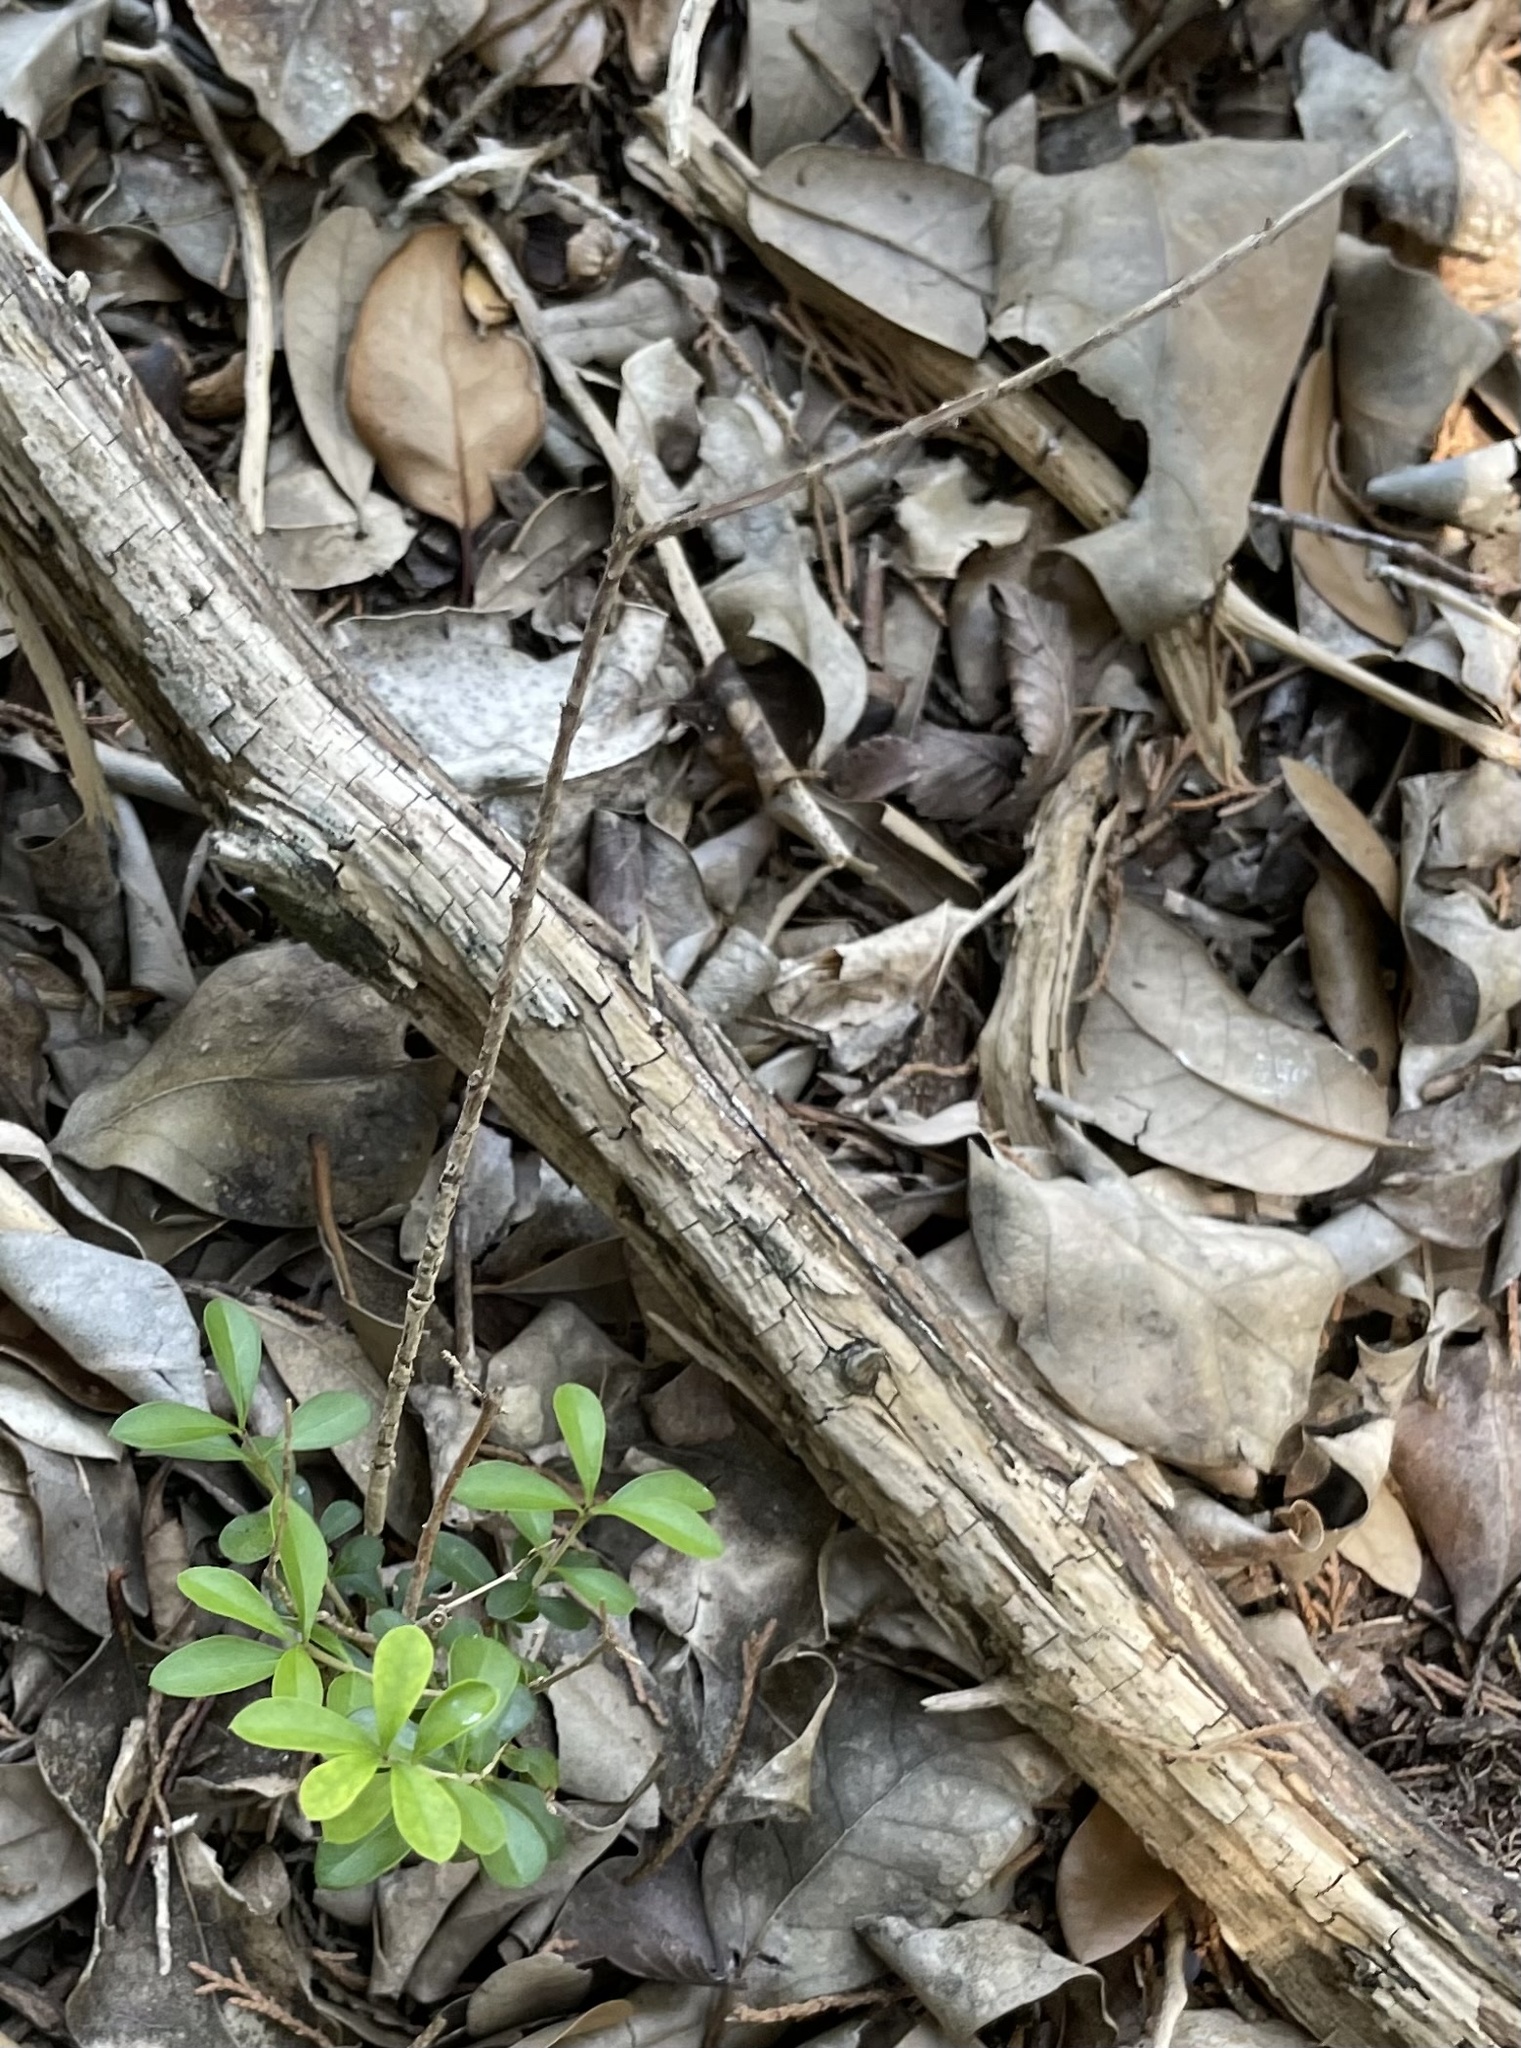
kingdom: Plantae
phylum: Tracheophyta
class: Magnoliopsida
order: Lamiales
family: Oleaceae
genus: Ligustrum
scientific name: Ligustrum quihoui
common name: Waxyleaf privet
